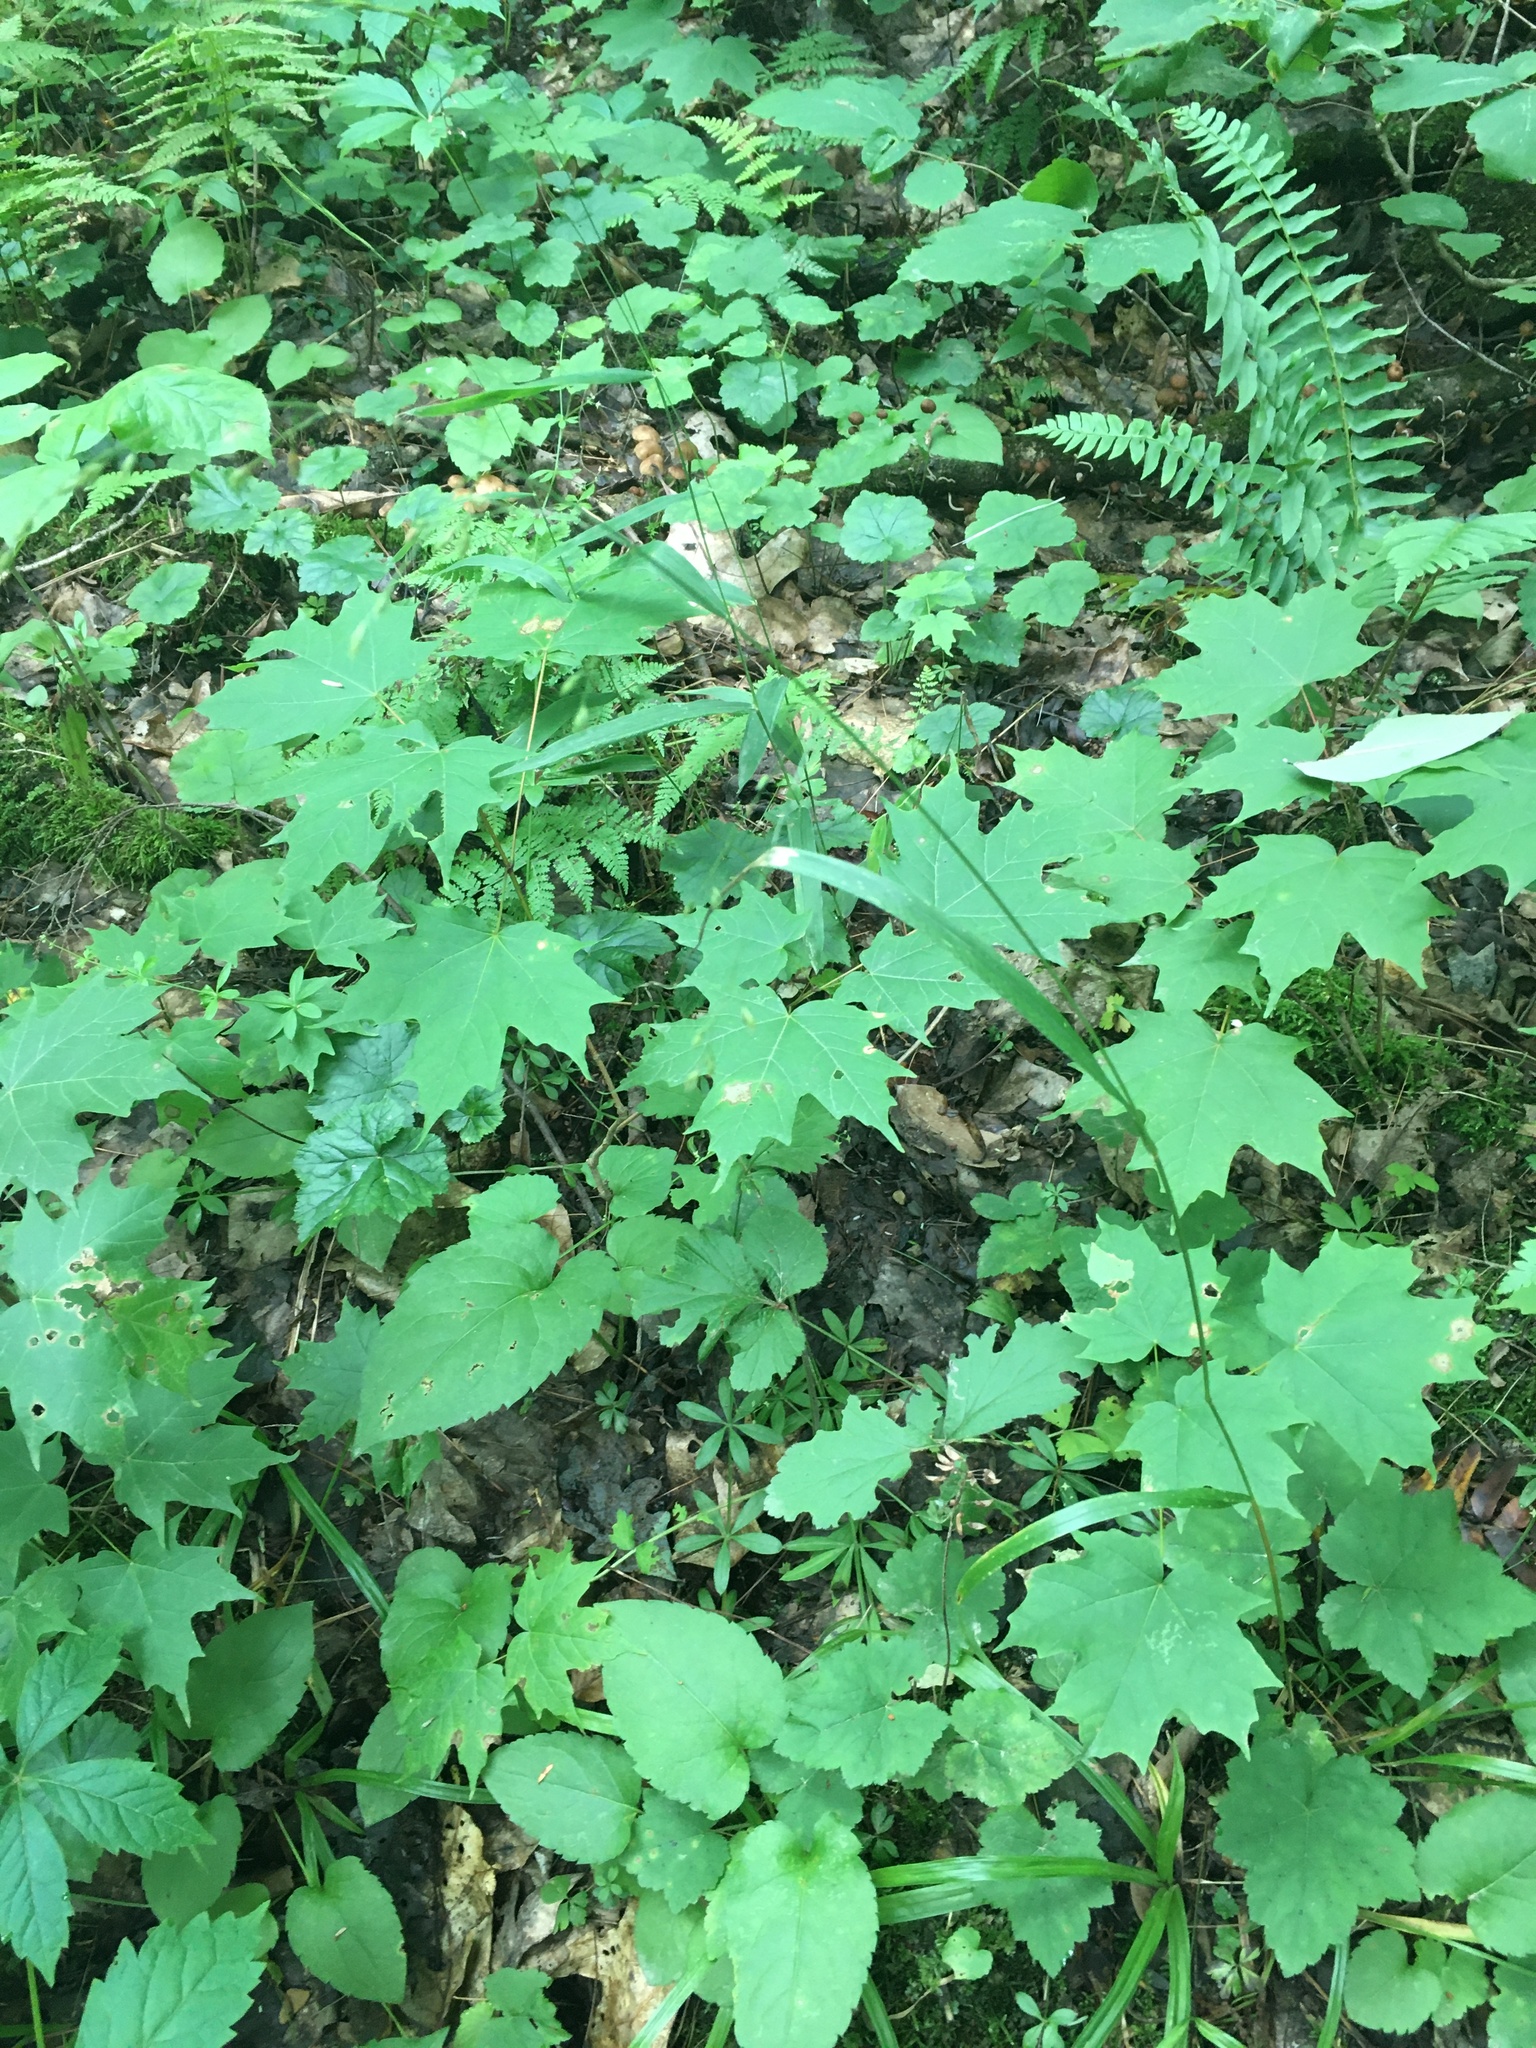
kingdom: Plantae
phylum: Tracheophyta
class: Liliopsida
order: Poales
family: Poaceae
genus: Festuca
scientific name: Festuca subverticillata
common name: Nodding fescue
